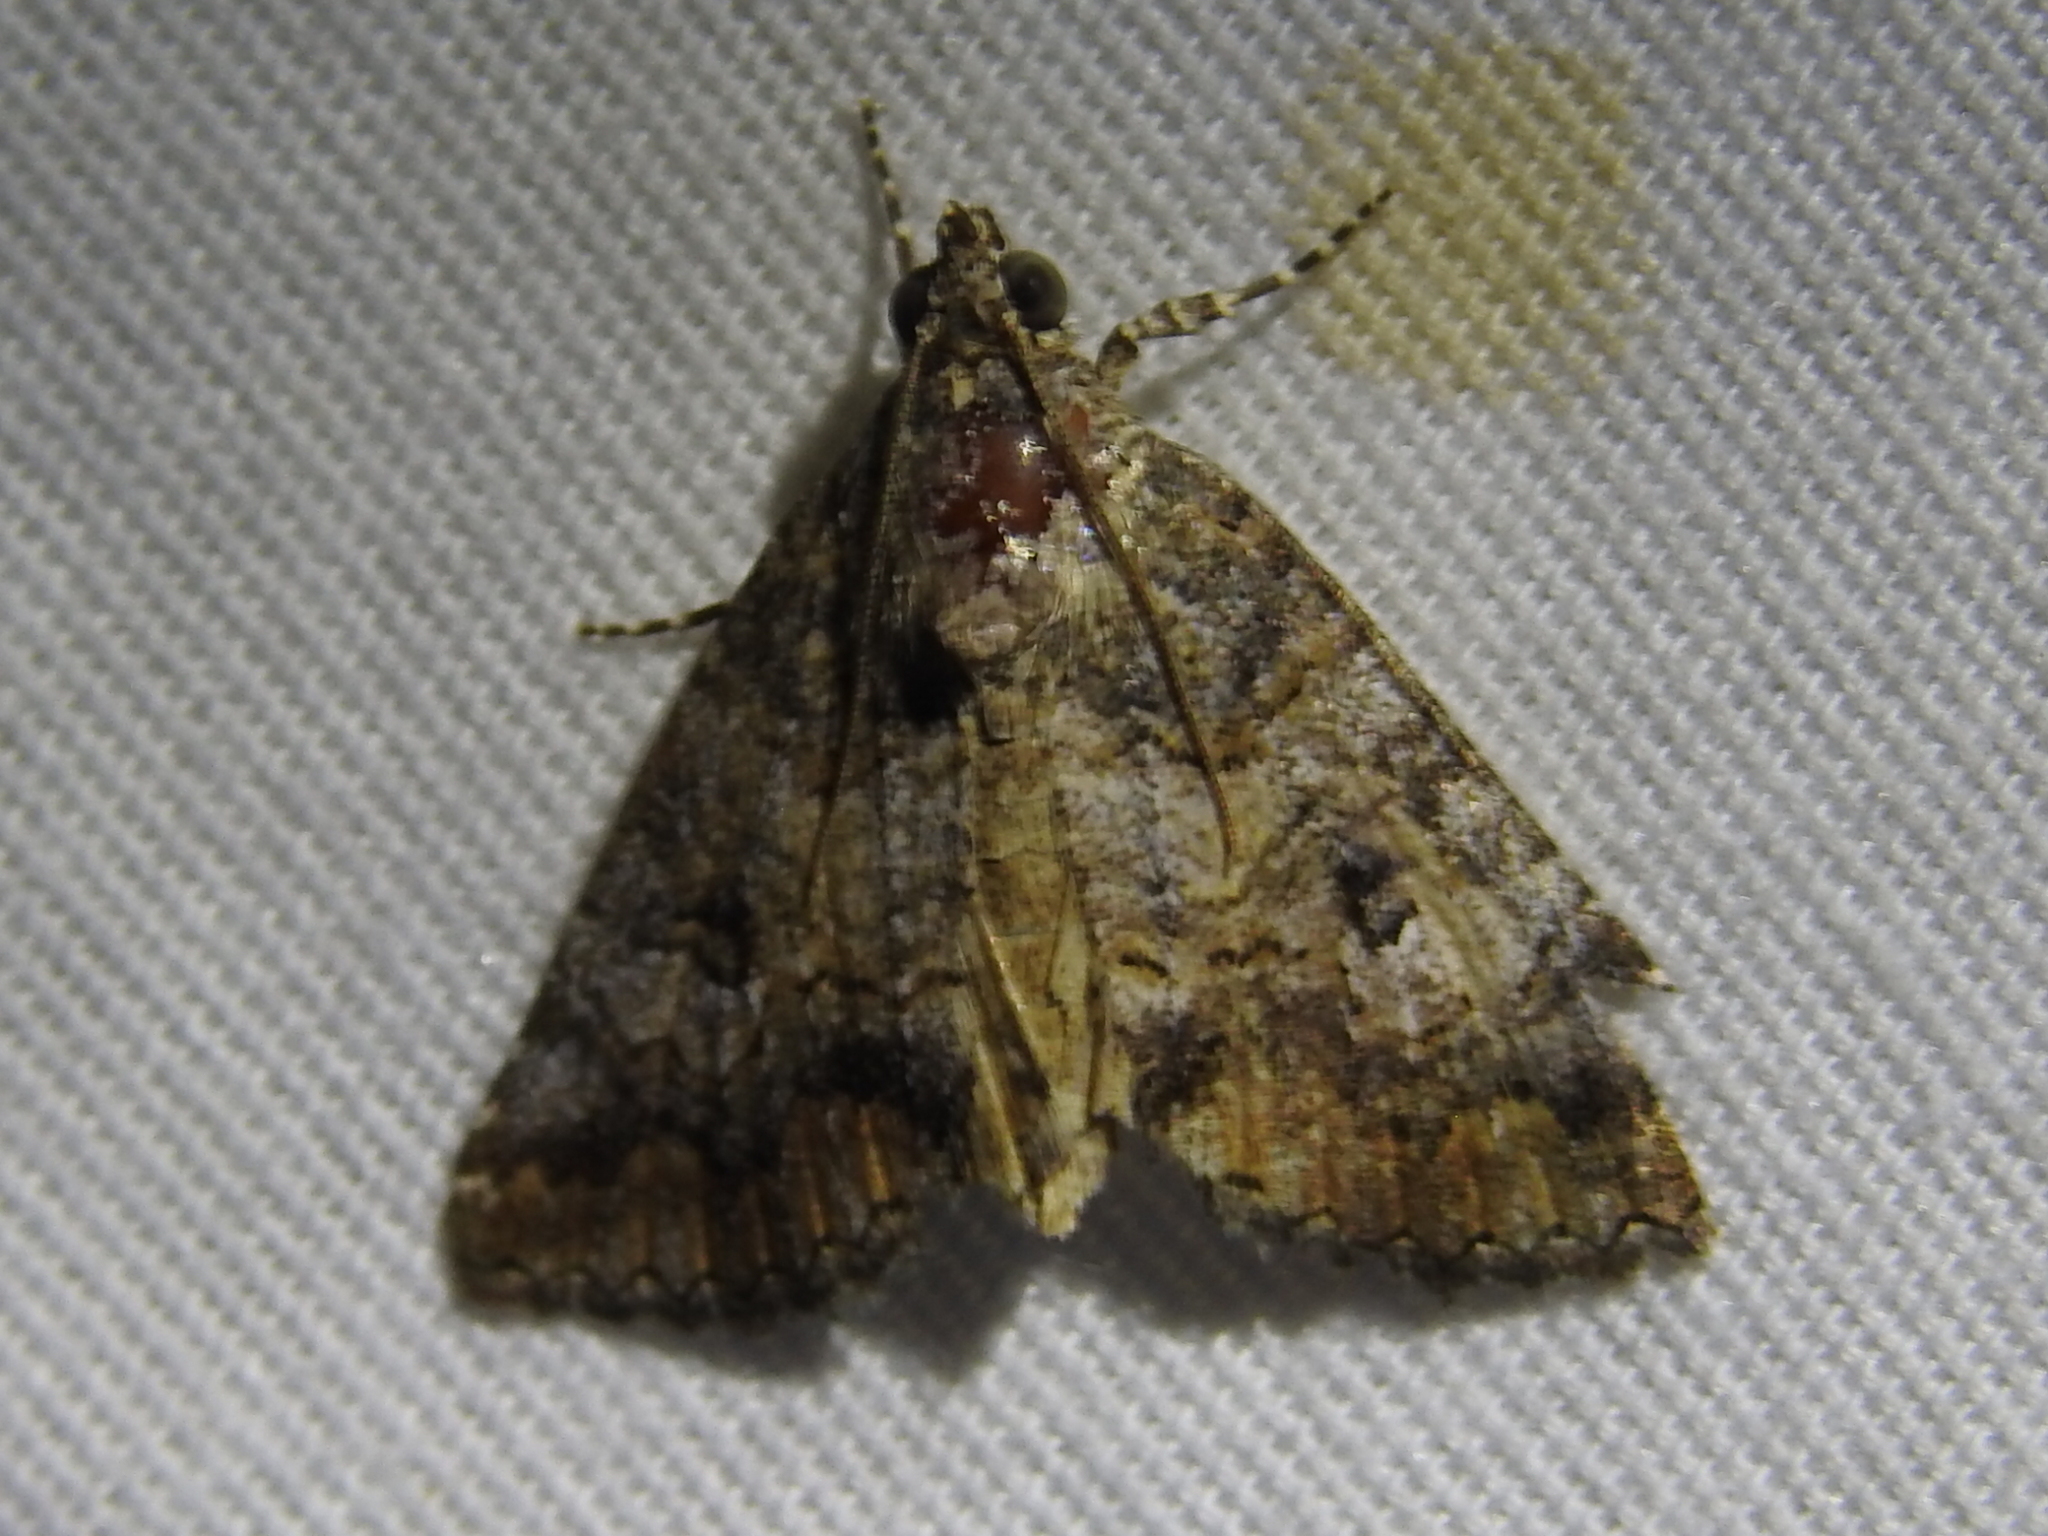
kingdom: Animalia
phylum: Arthropoda
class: Insecta
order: Lepidoptera
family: Erebidae
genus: Eubolina
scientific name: Eubolina impartialis
